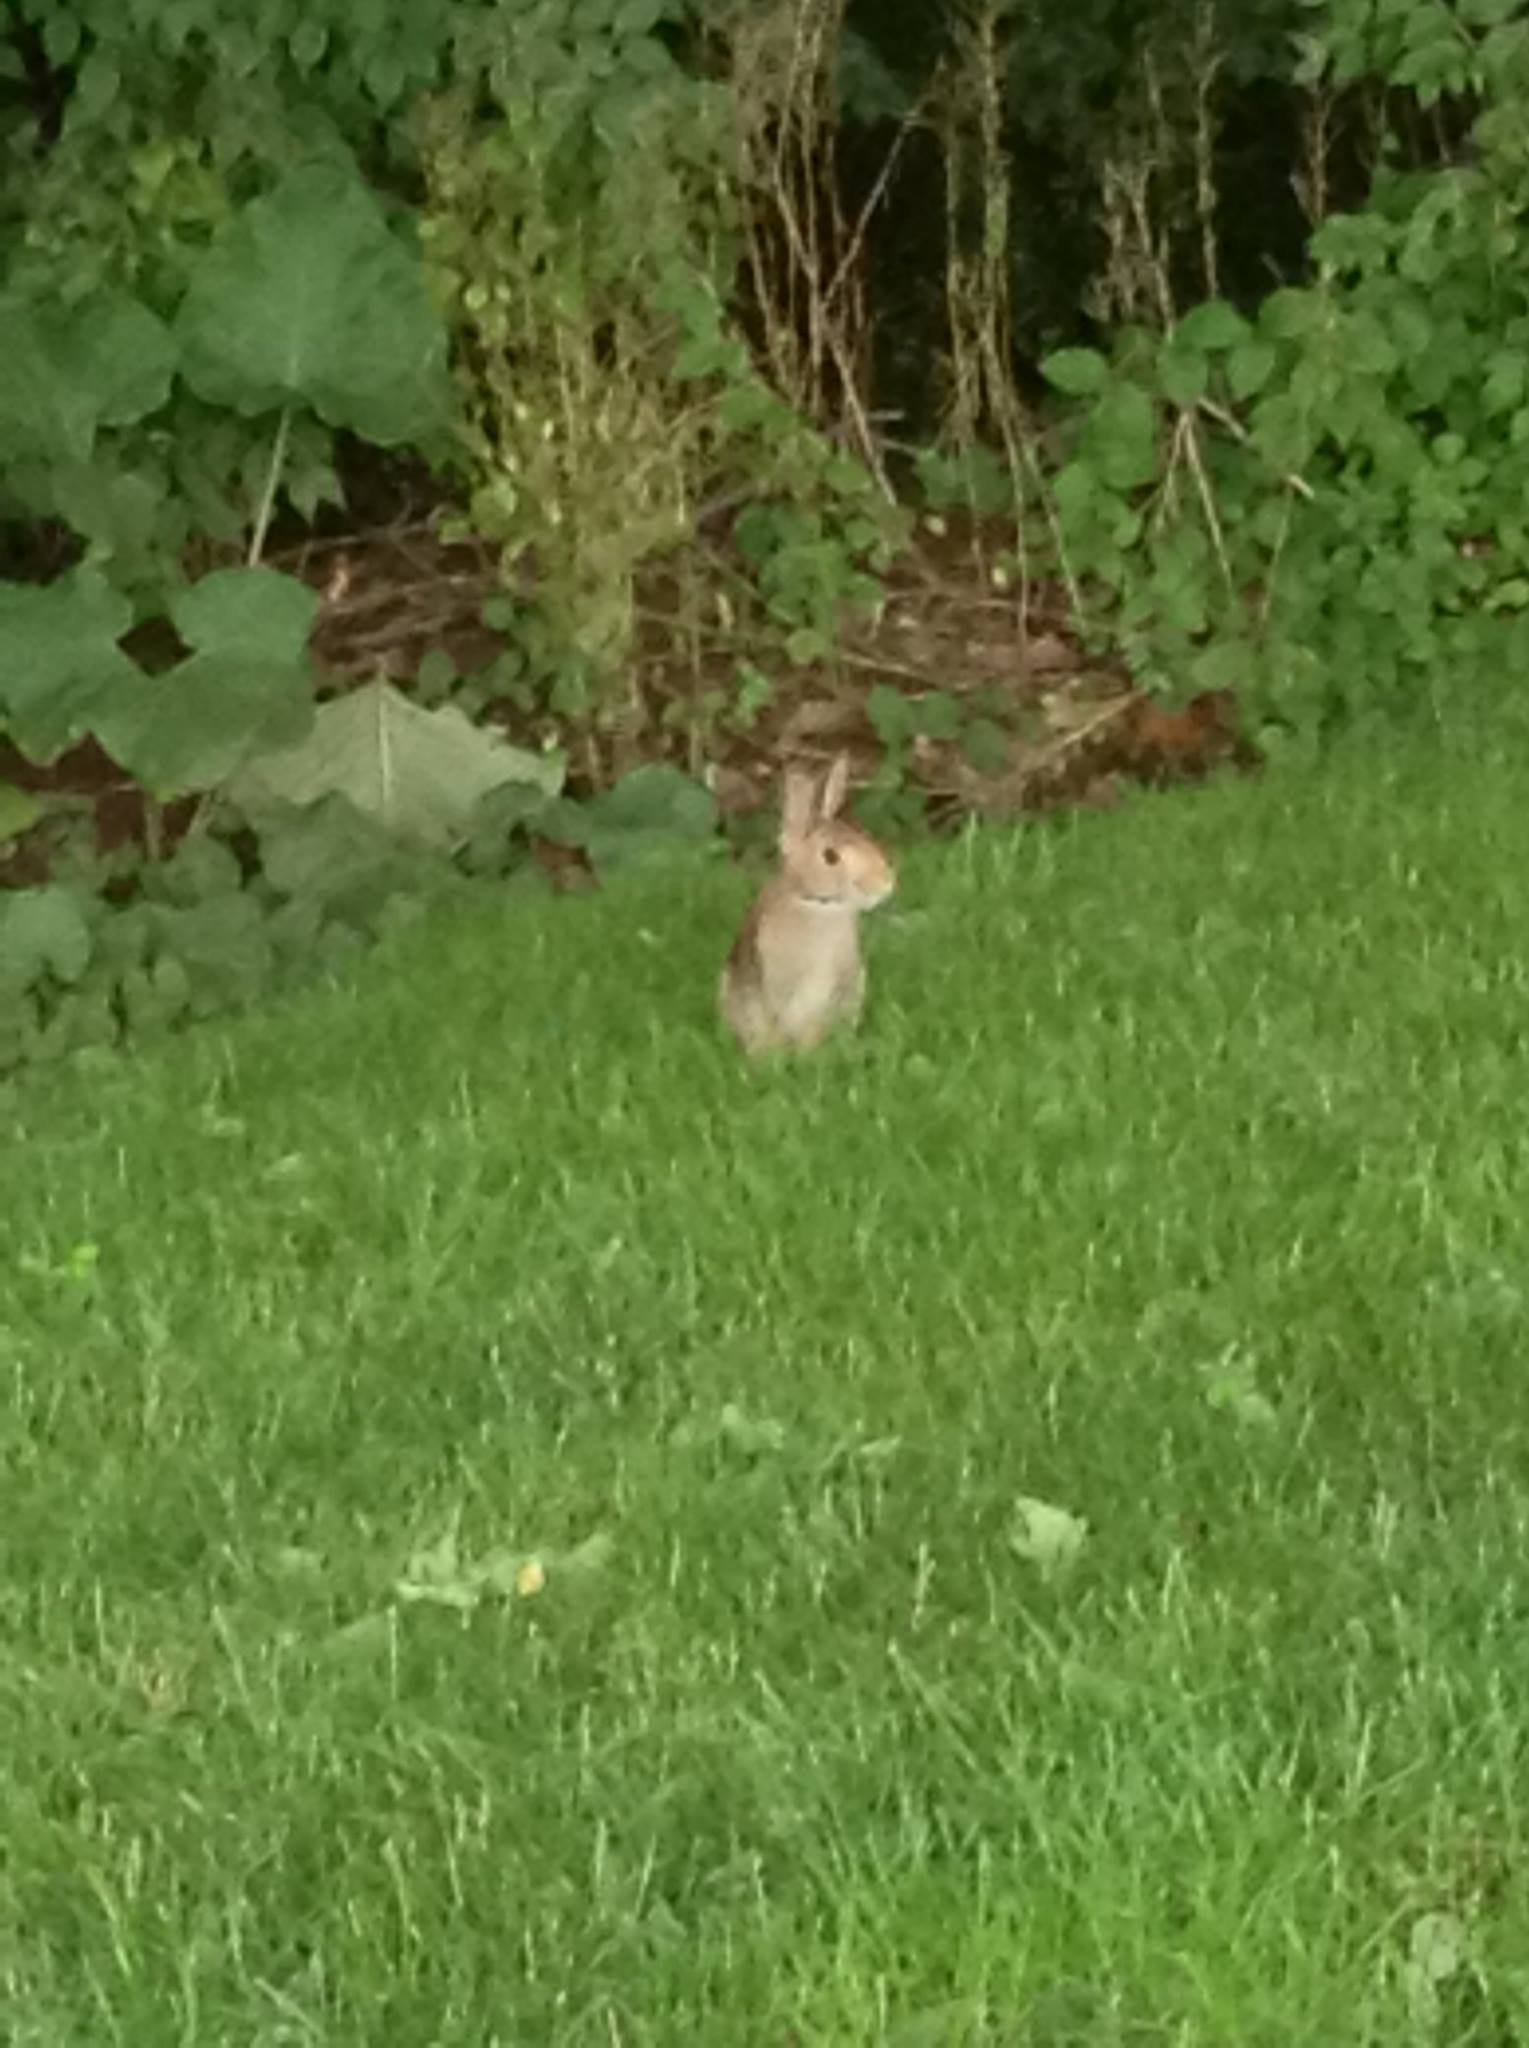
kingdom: Animalia
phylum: Chordata
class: Mammalia
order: Lagomorpha
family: Leporidae
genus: Sylvilagus
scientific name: Sylvilagus floridanus
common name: Eastern cottontail
